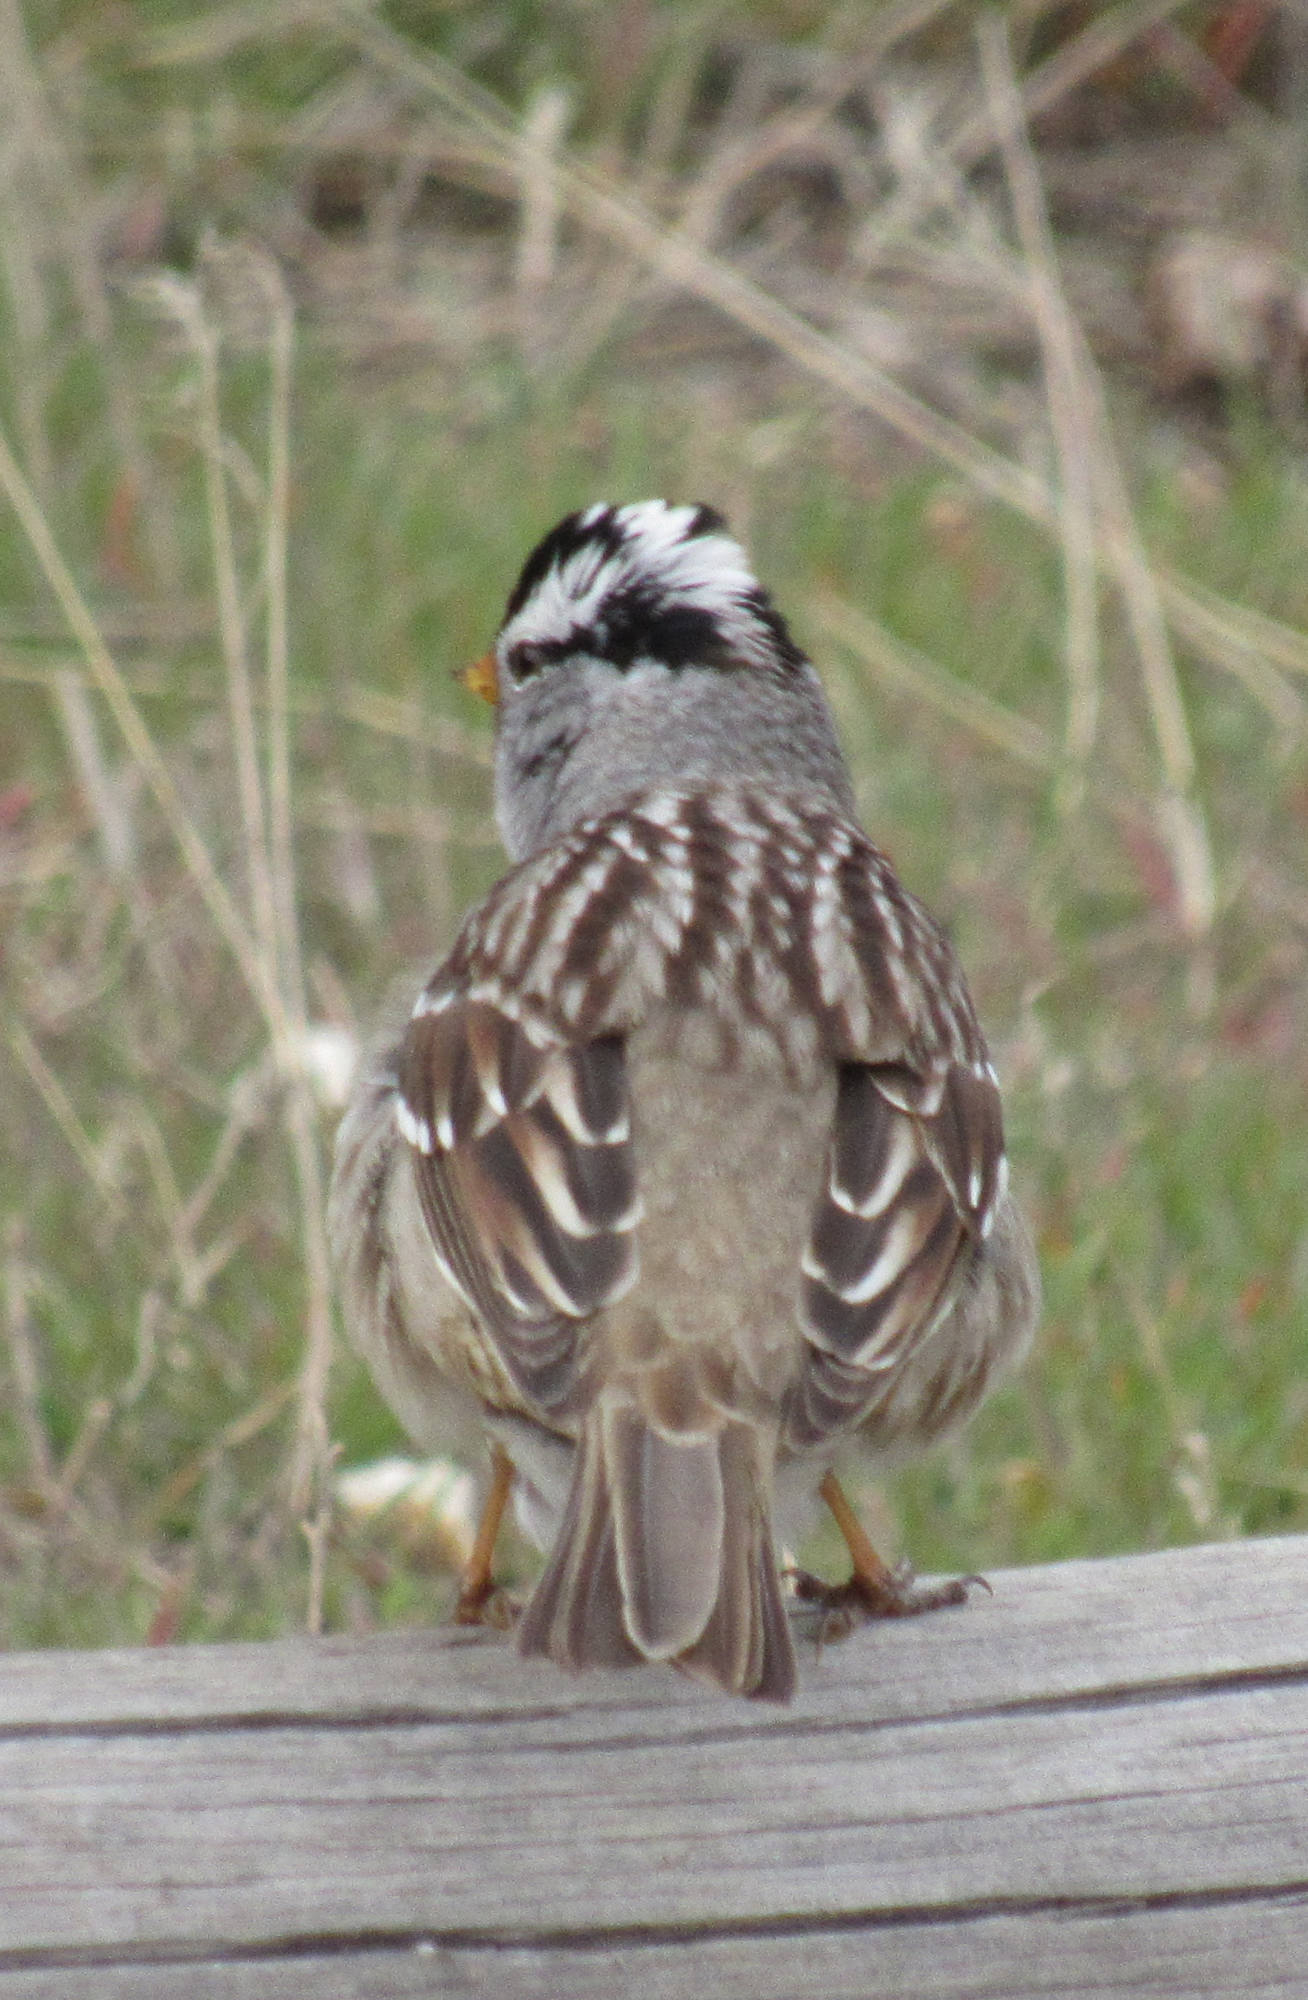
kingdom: Animalia
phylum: Chordata
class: Aves
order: Passeriformes
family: Passerellidae
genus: Zonotrichia
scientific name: Zonotrichia leucophrys
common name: White-crowned sparrow
